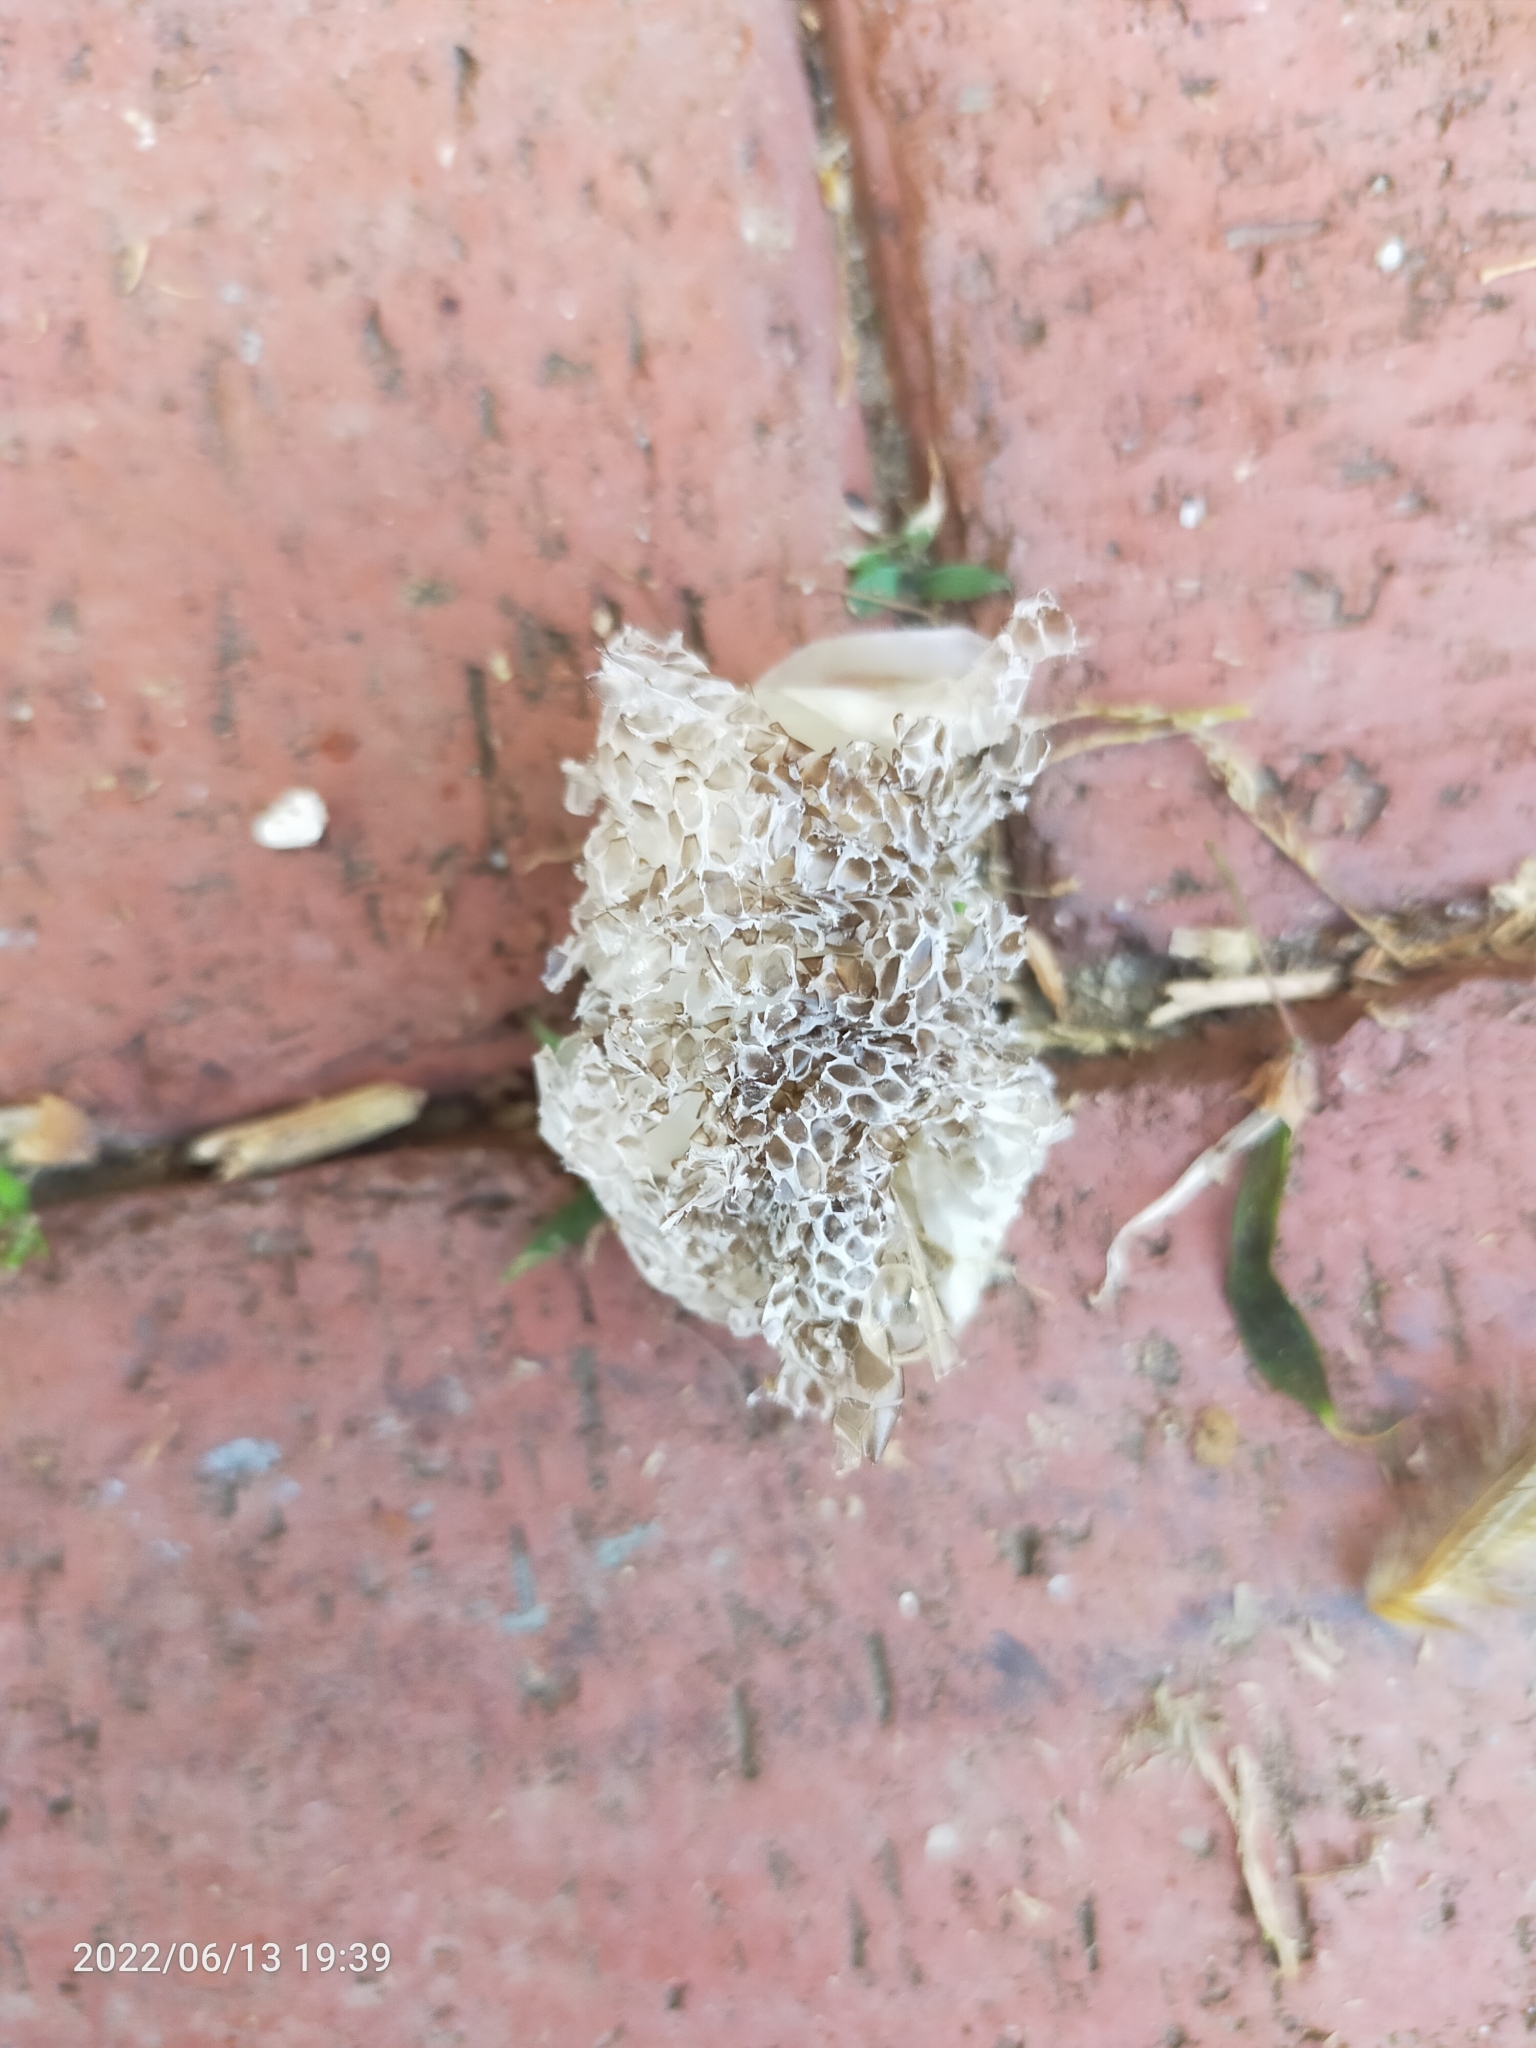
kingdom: Animalia
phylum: Chordata
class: Squamata
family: Colubridae
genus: Dolichophis
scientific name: Dolichophis caspius
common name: Large whip snake
